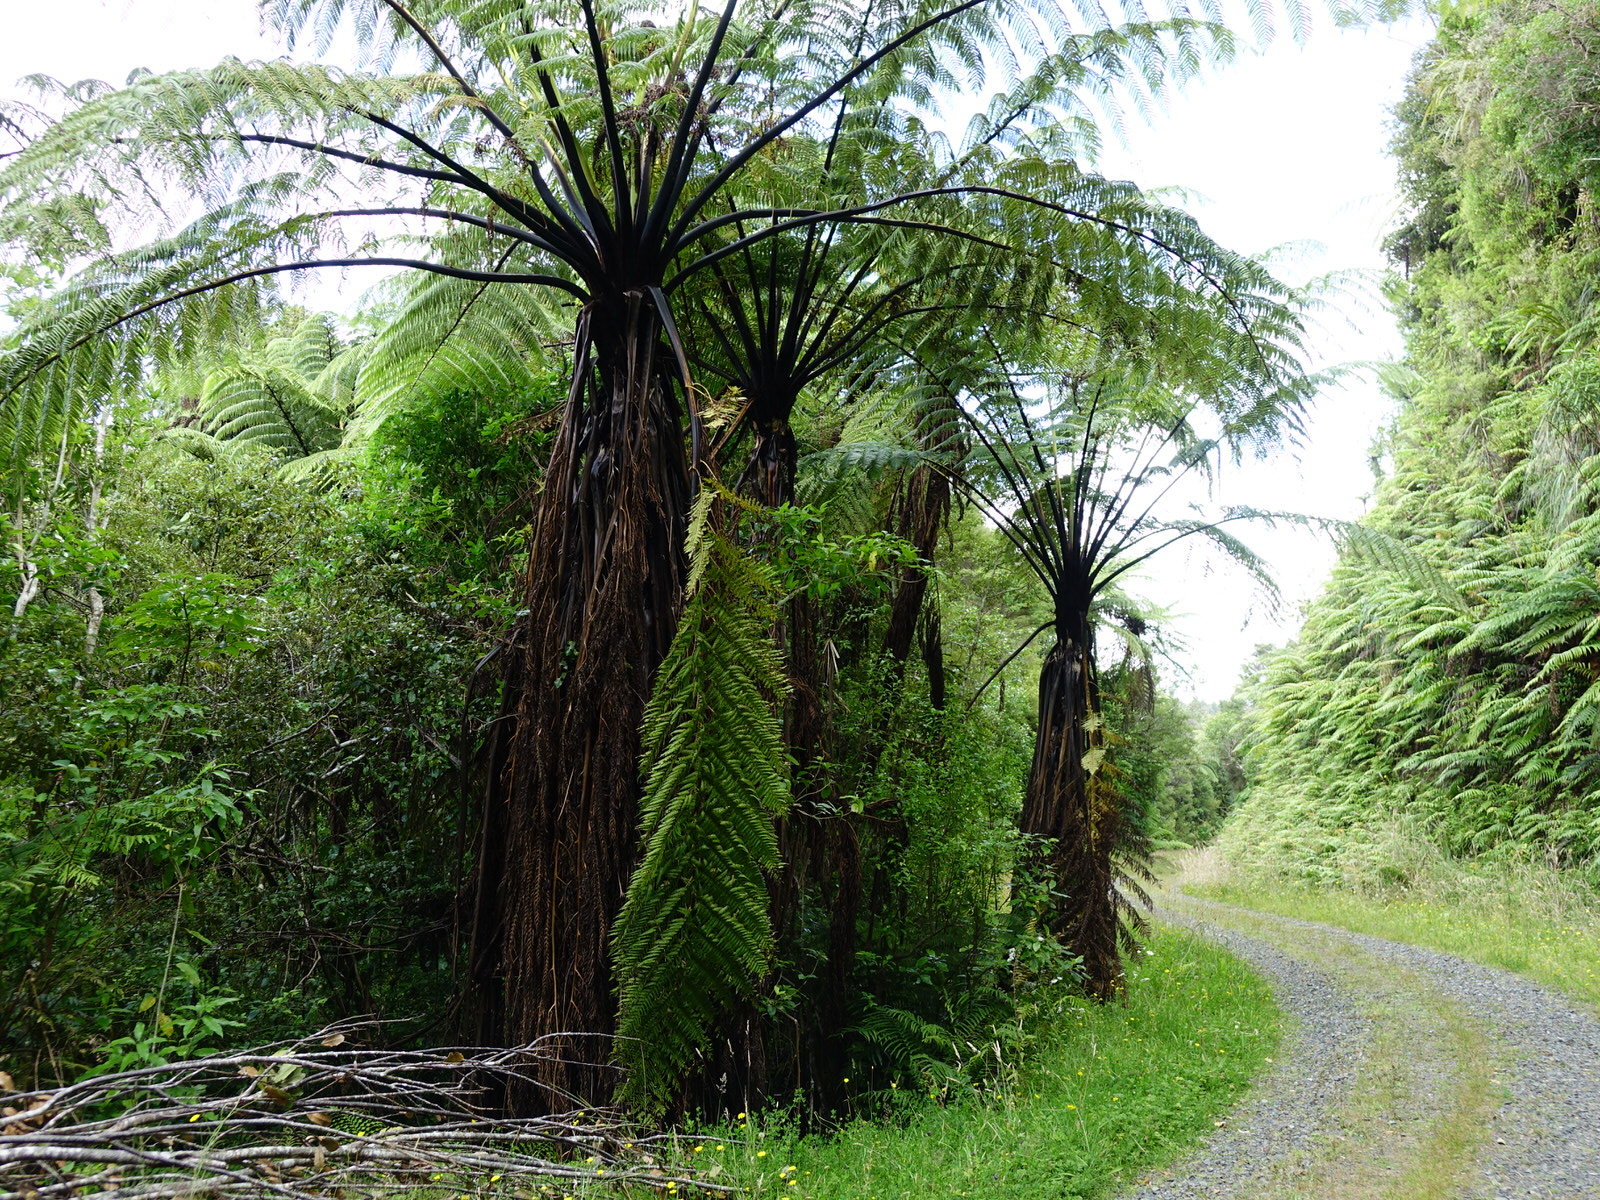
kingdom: Plantae
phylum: Tracheophyta
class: Polypodiopsida
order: Cyatheales
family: Cyatheaceae
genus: Sphaeropteris
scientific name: Sphaeropteris medullaris
